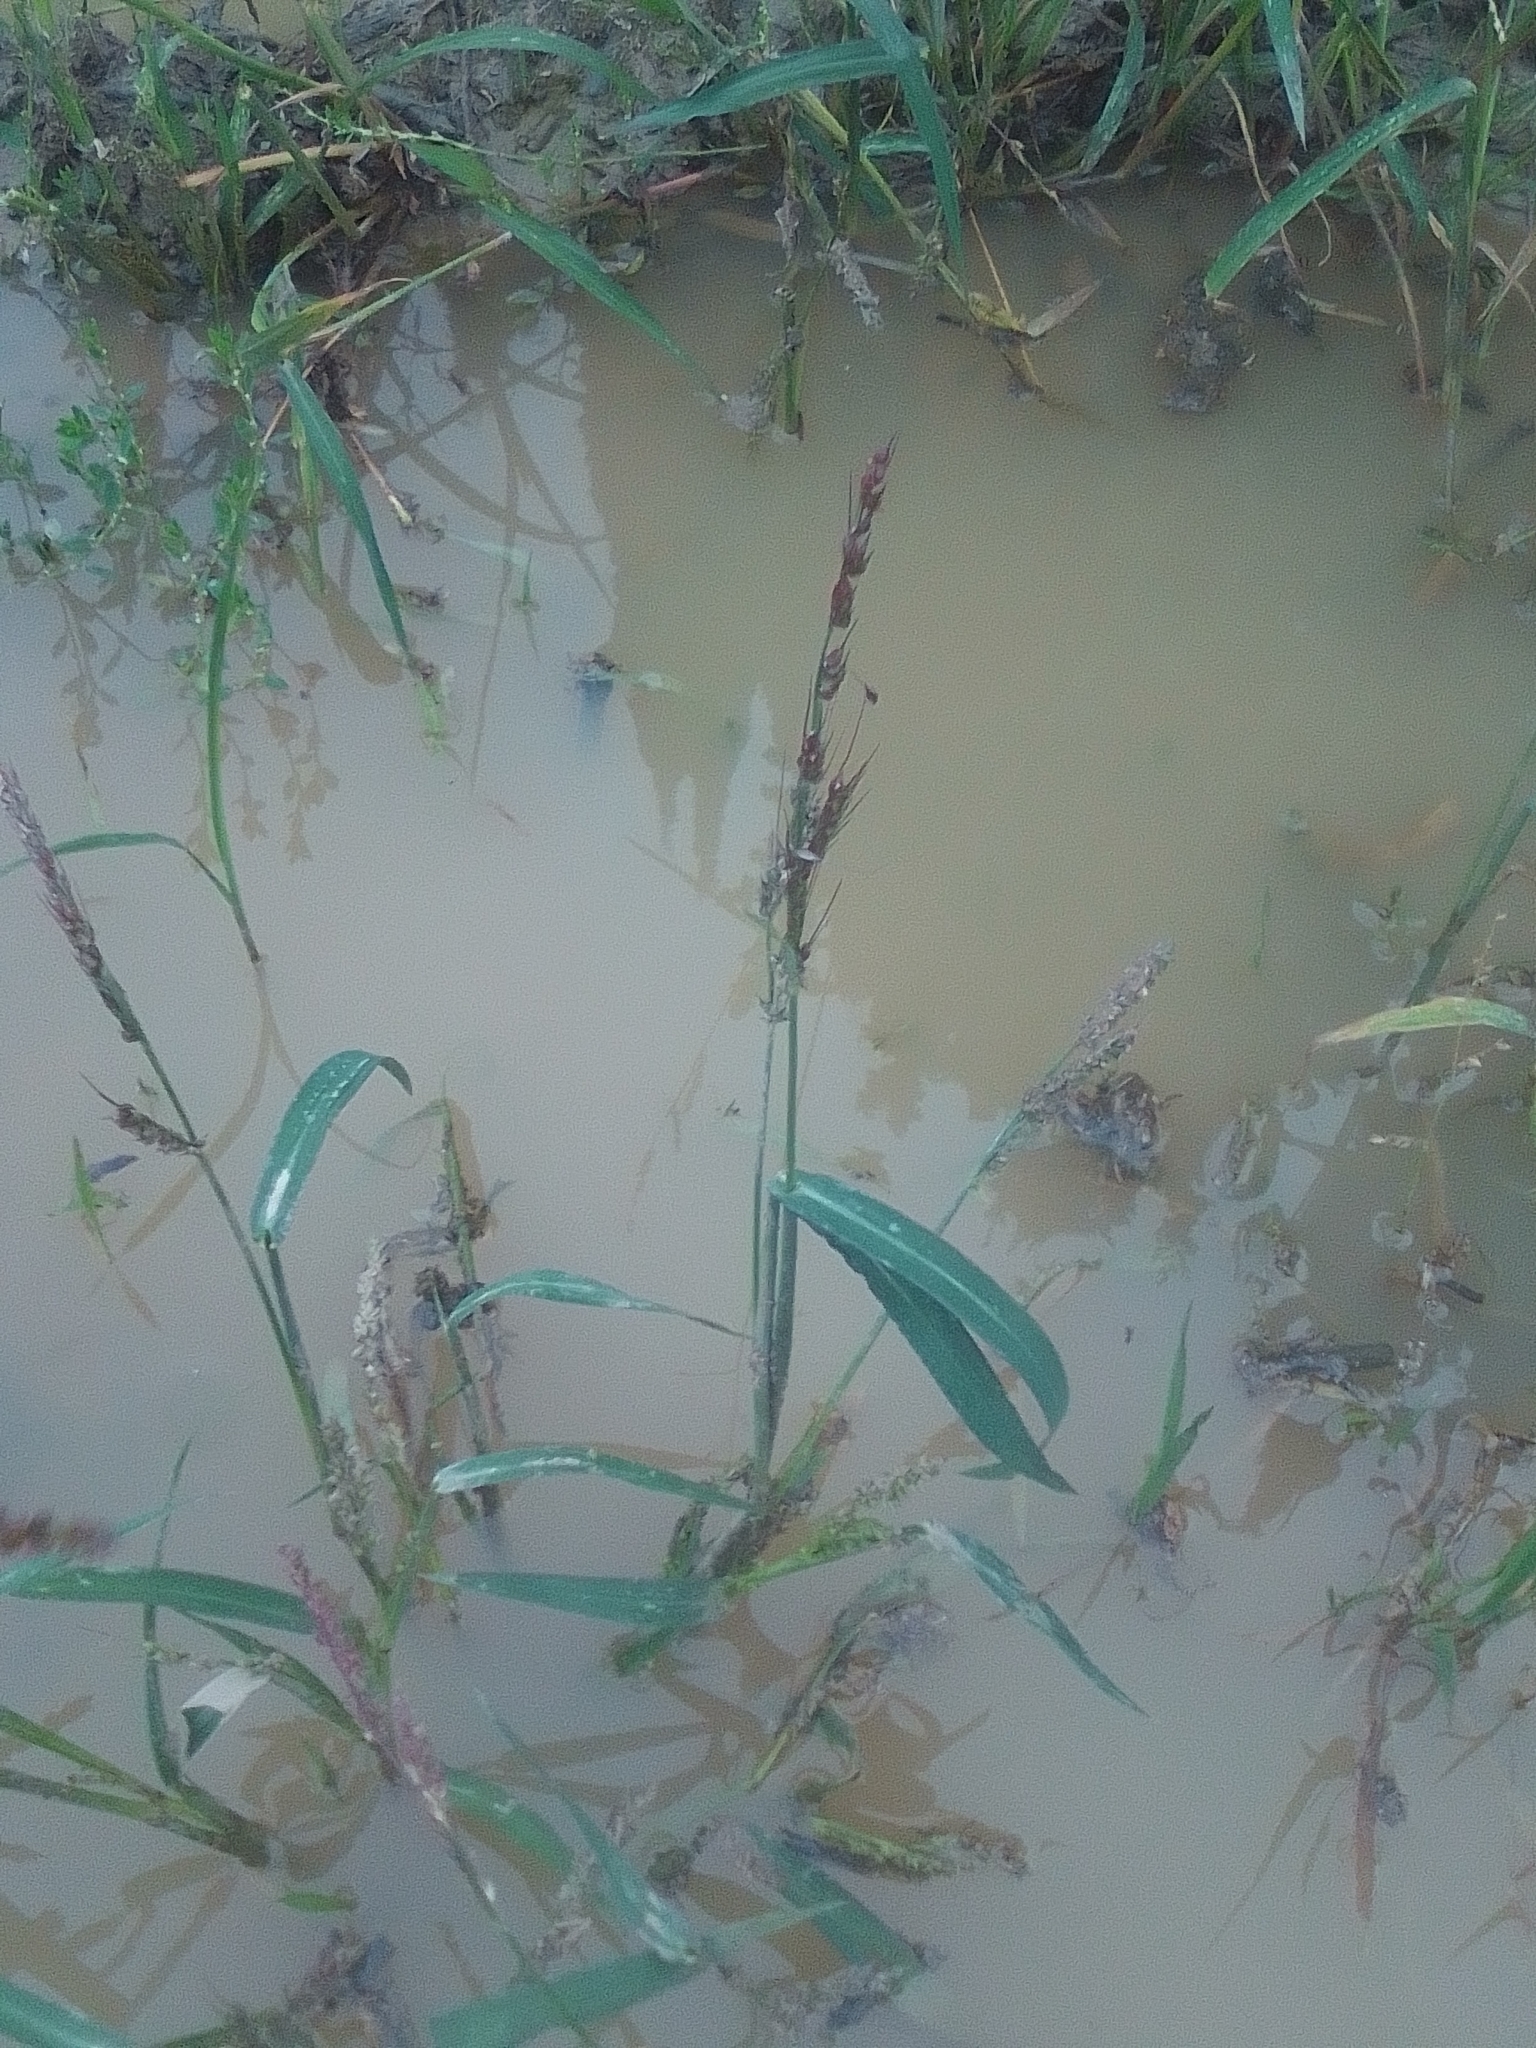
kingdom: Plantae
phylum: Tracheophyta
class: Liliopsida
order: Poales
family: Poaceae
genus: Echinochloa
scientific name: Echinochloa crus-galli
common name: Cockspur
